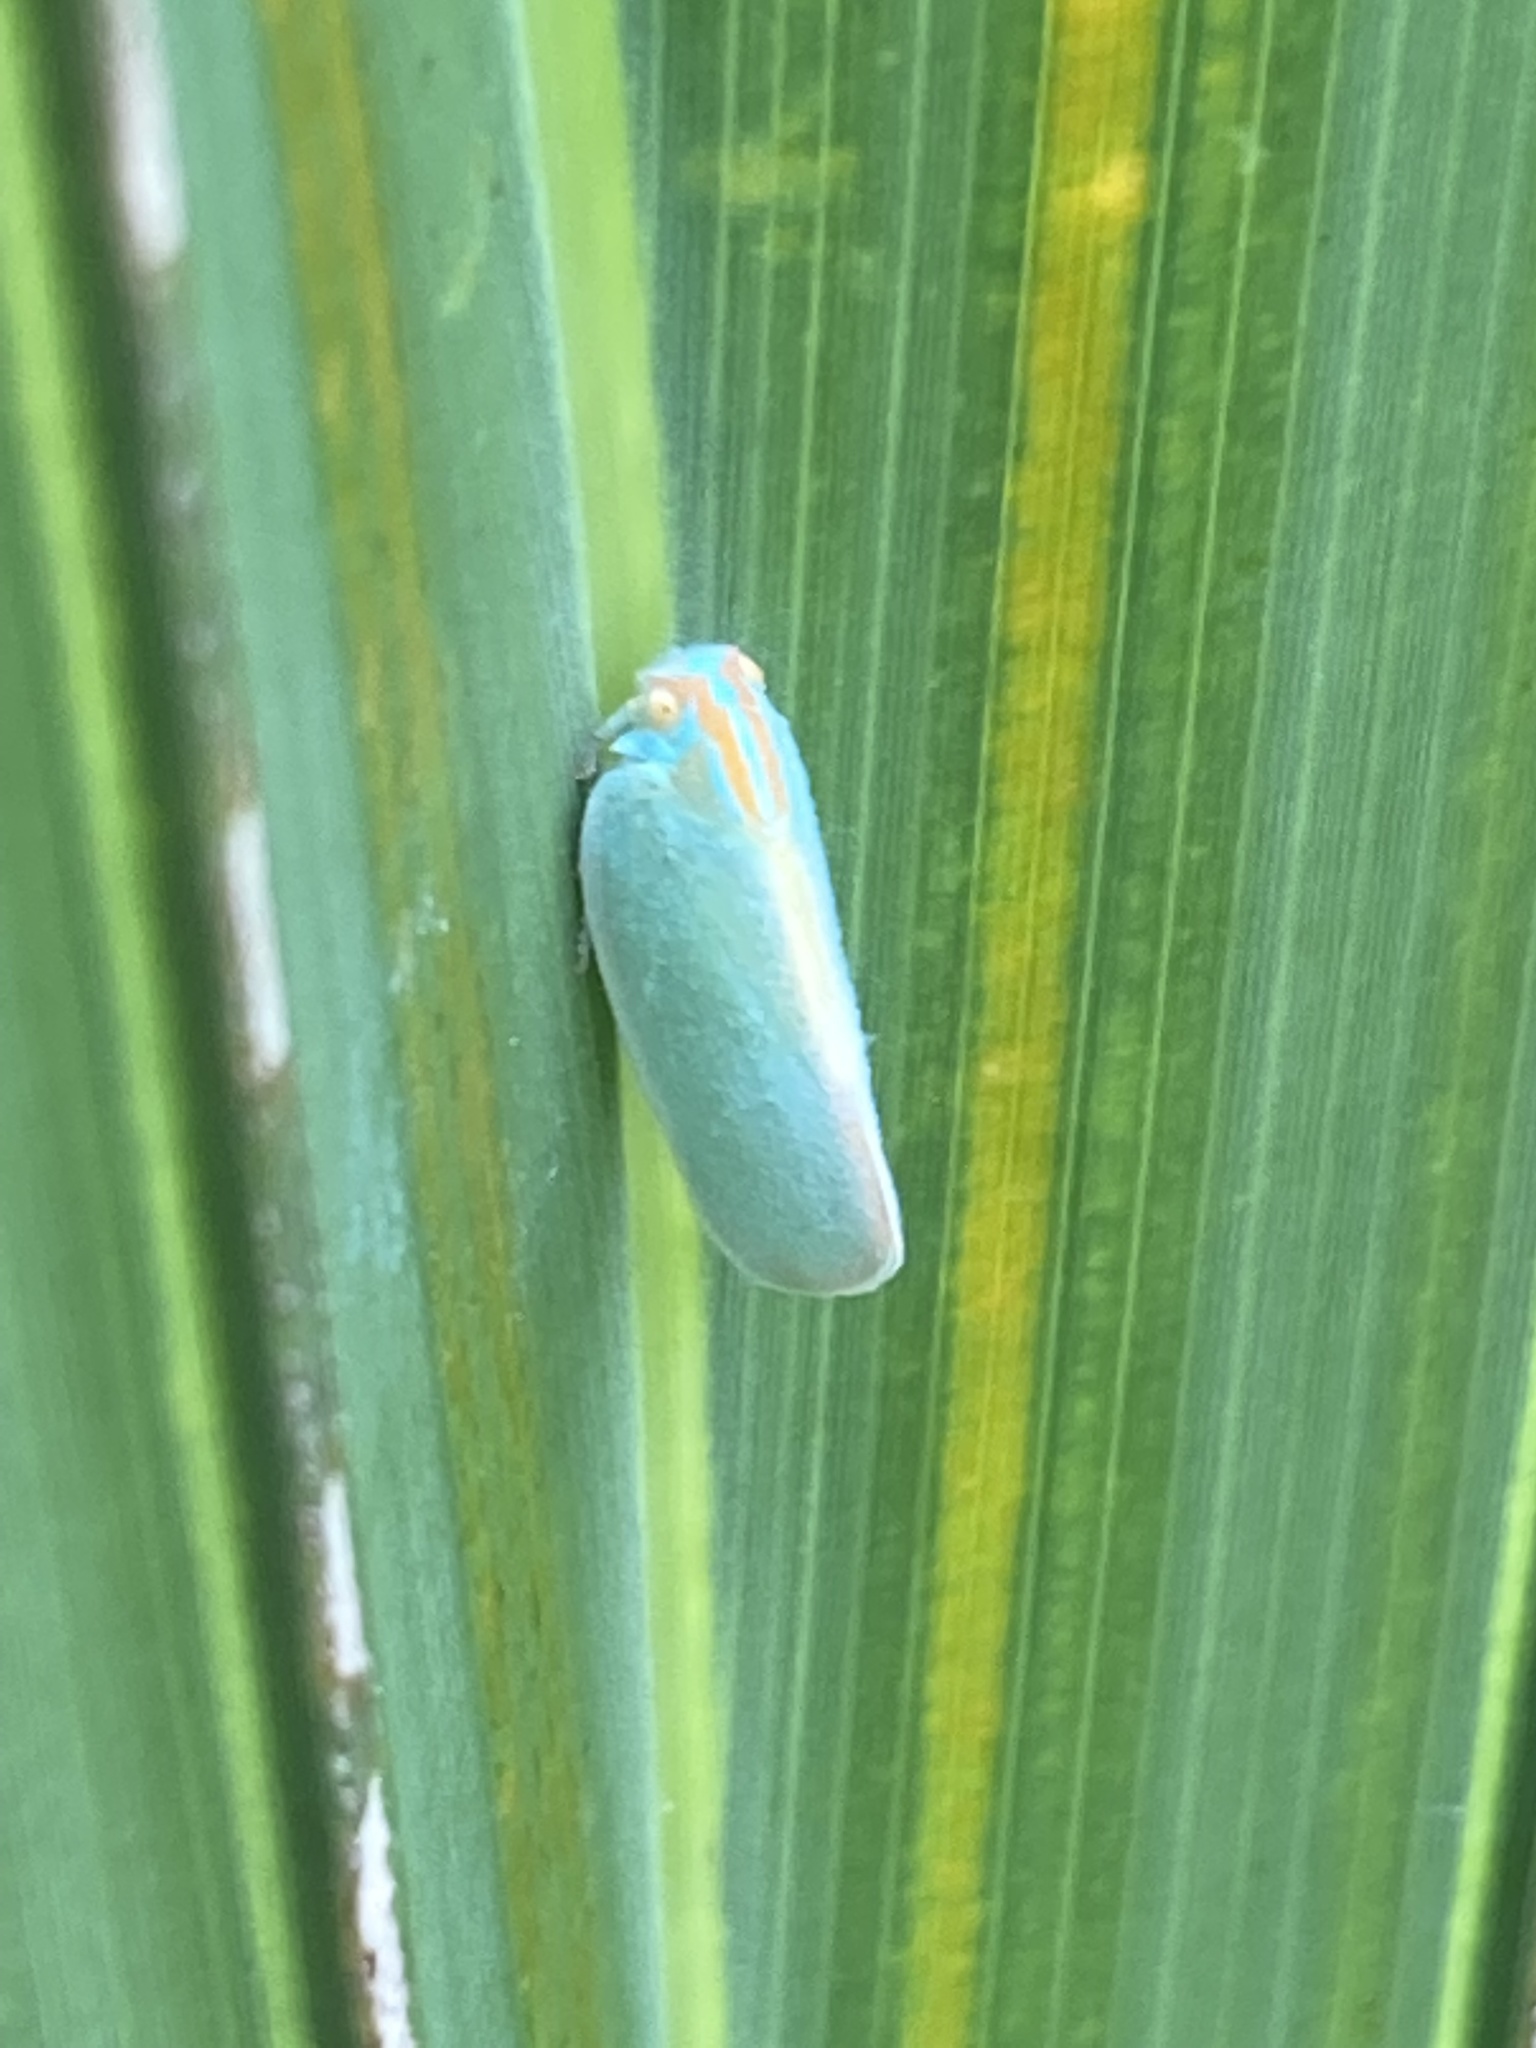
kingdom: Animalia
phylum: Arthropoda
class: Insecta
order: Hemiptera
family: Flatidae
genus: Ormenaria
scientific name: Ormenaria rufifascia
